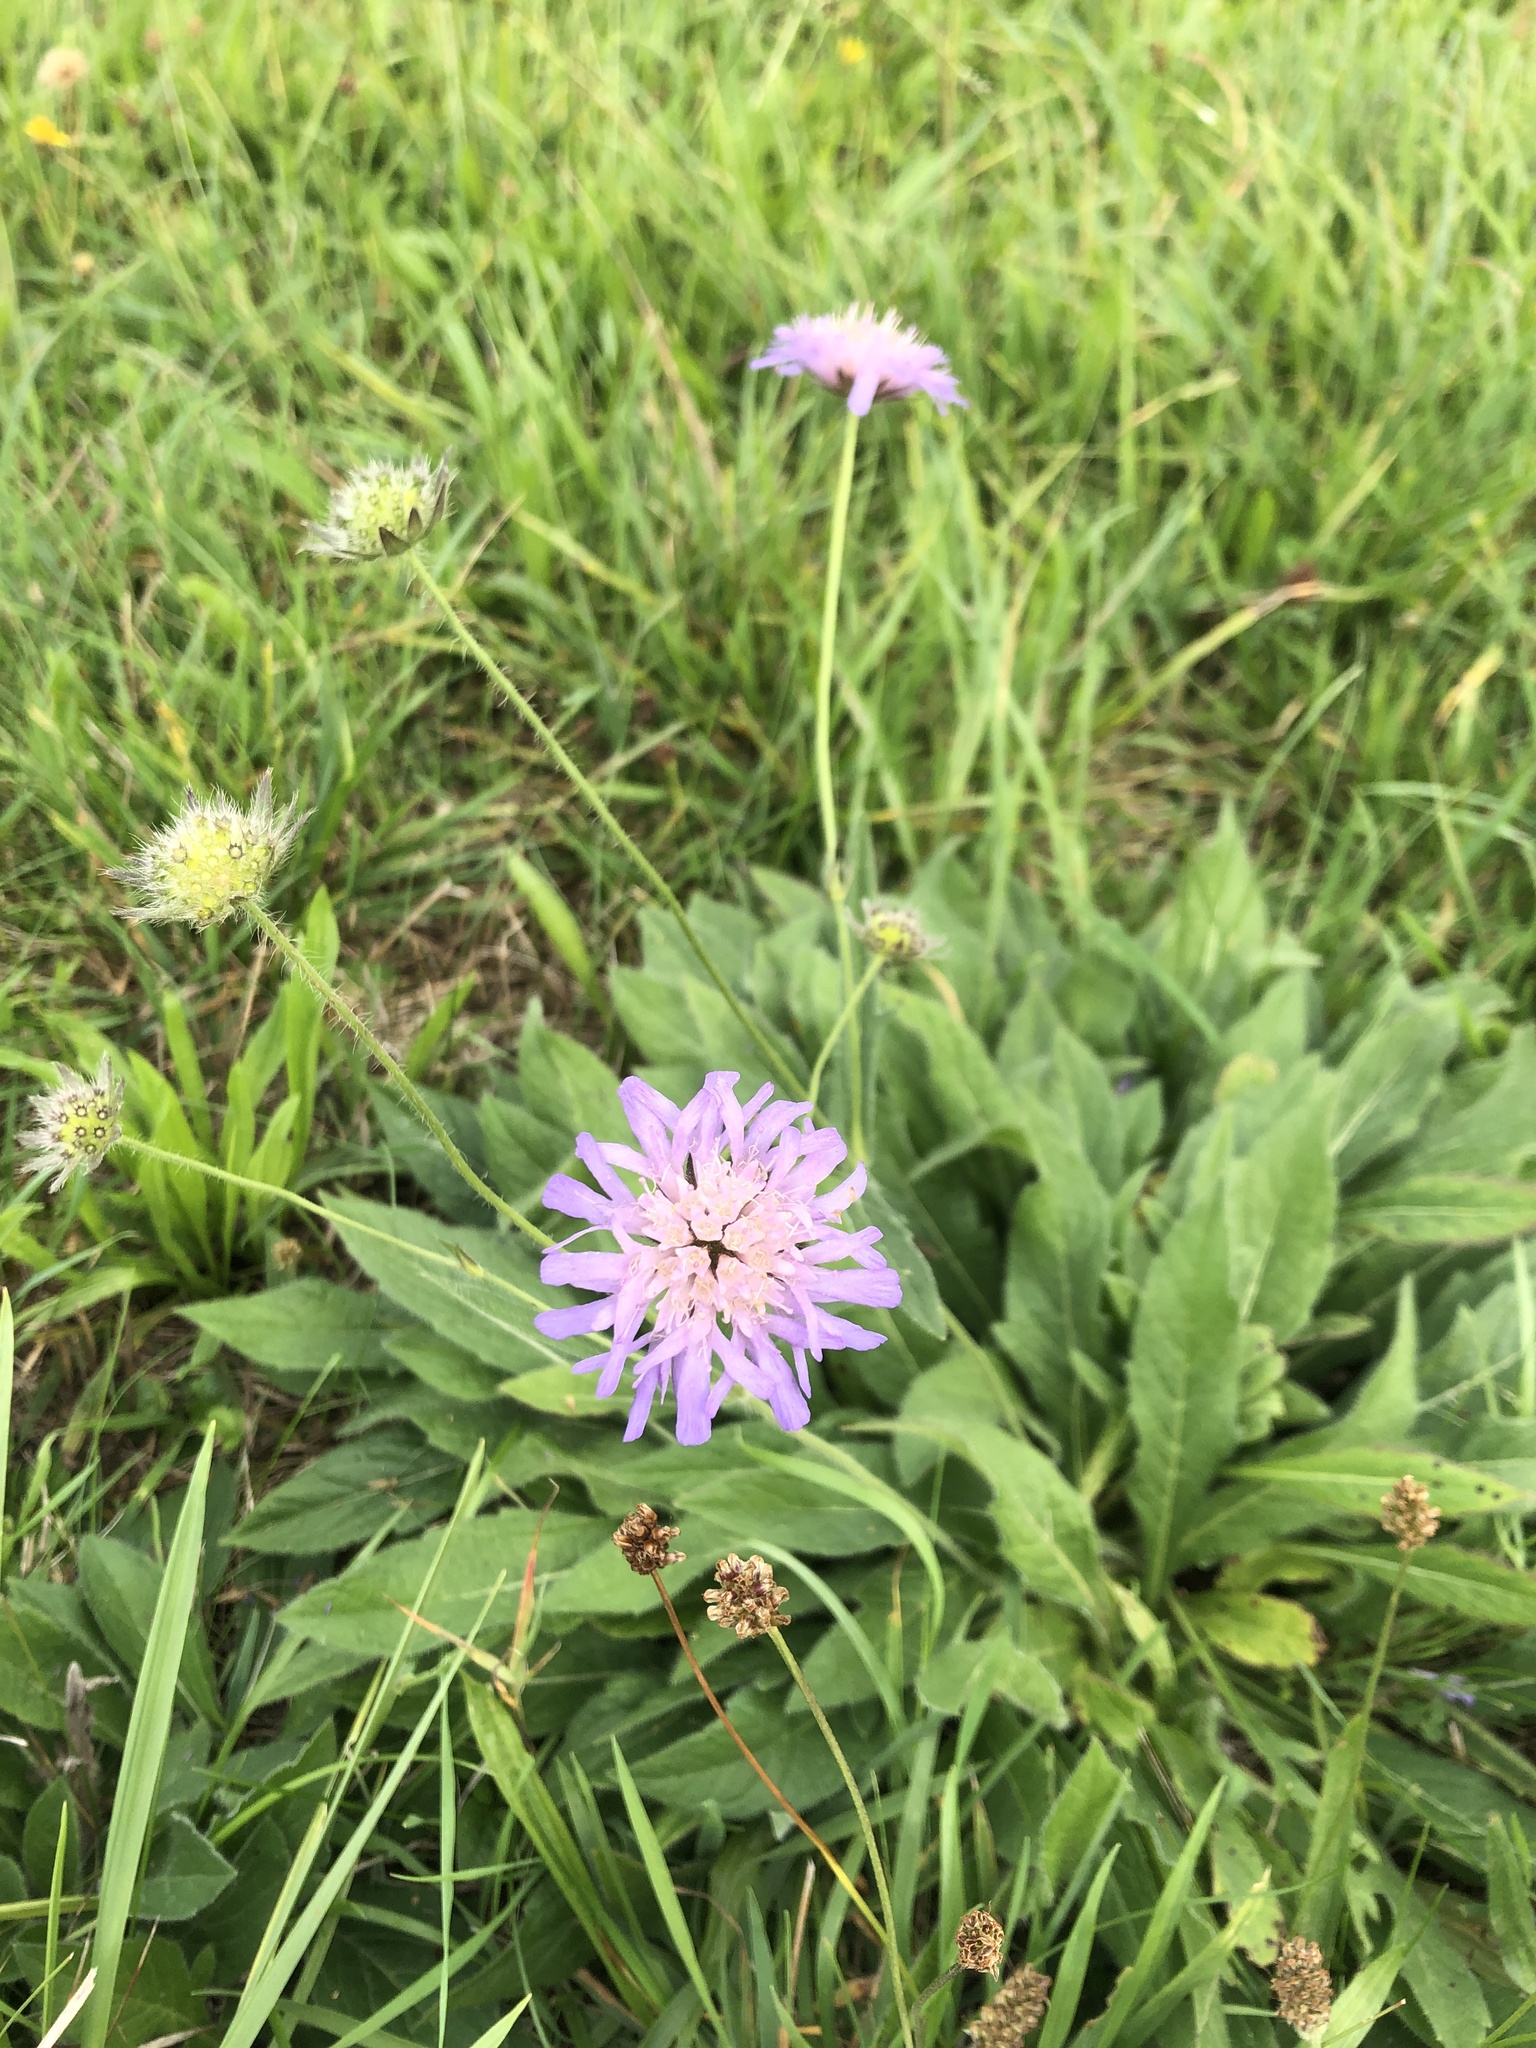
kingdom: Plantae
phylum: Tracheophyta
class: Magnoliopsida
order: Dipsacales
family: Caprifoliaceae
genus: Knautia
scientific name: Knautia arvensis
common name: Field scabiosa
